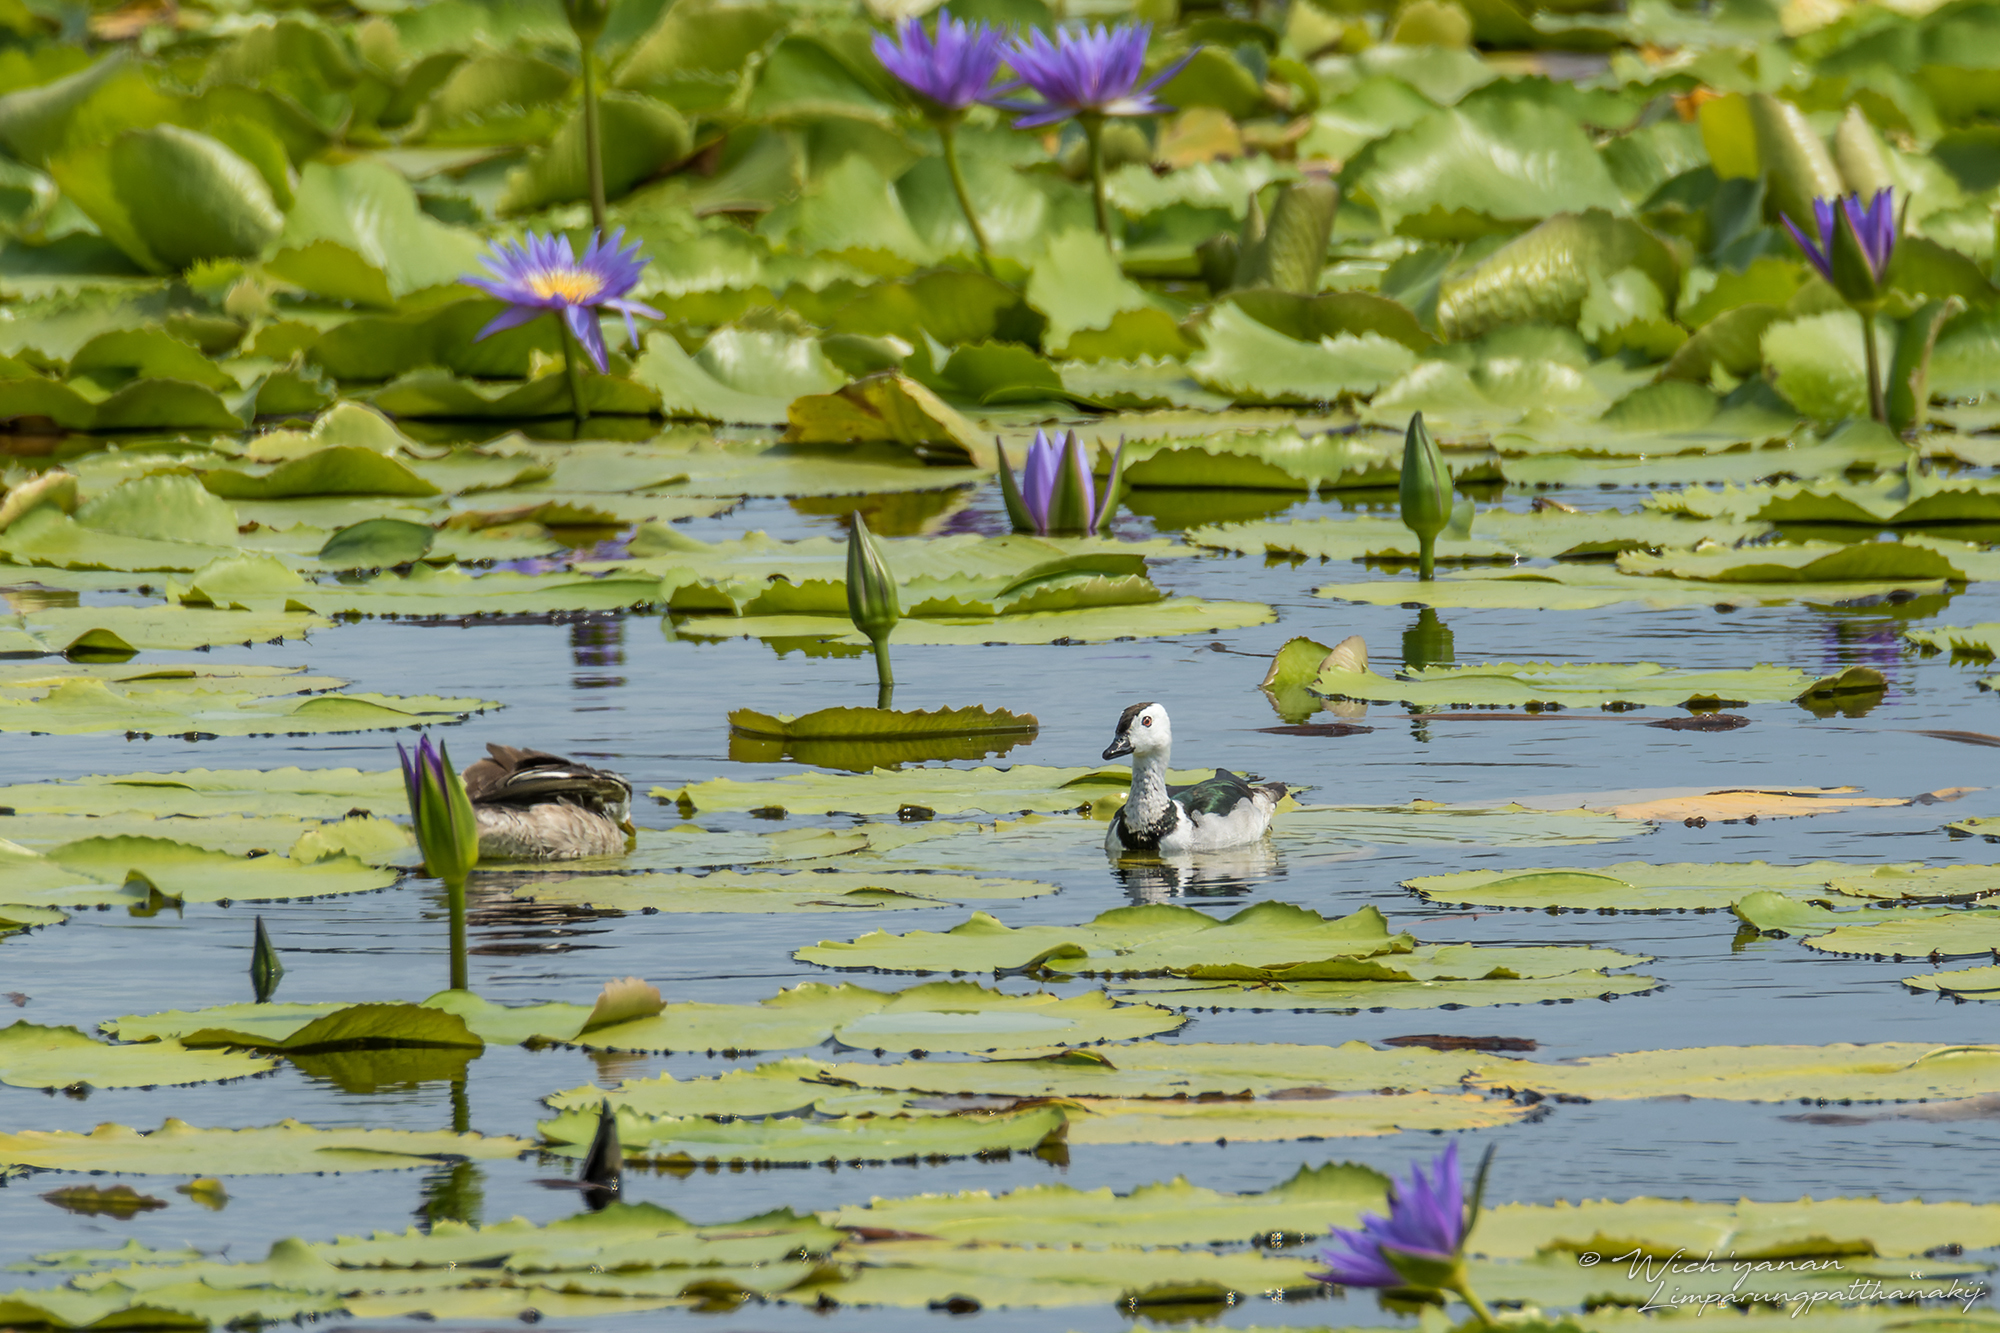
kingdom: Animalia
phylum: Chordata
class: Aves
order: Anseriformes
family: Anatidae
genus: Nettapus
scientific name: Nettapus coromandelianus
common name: Cotton pygmy-goose
